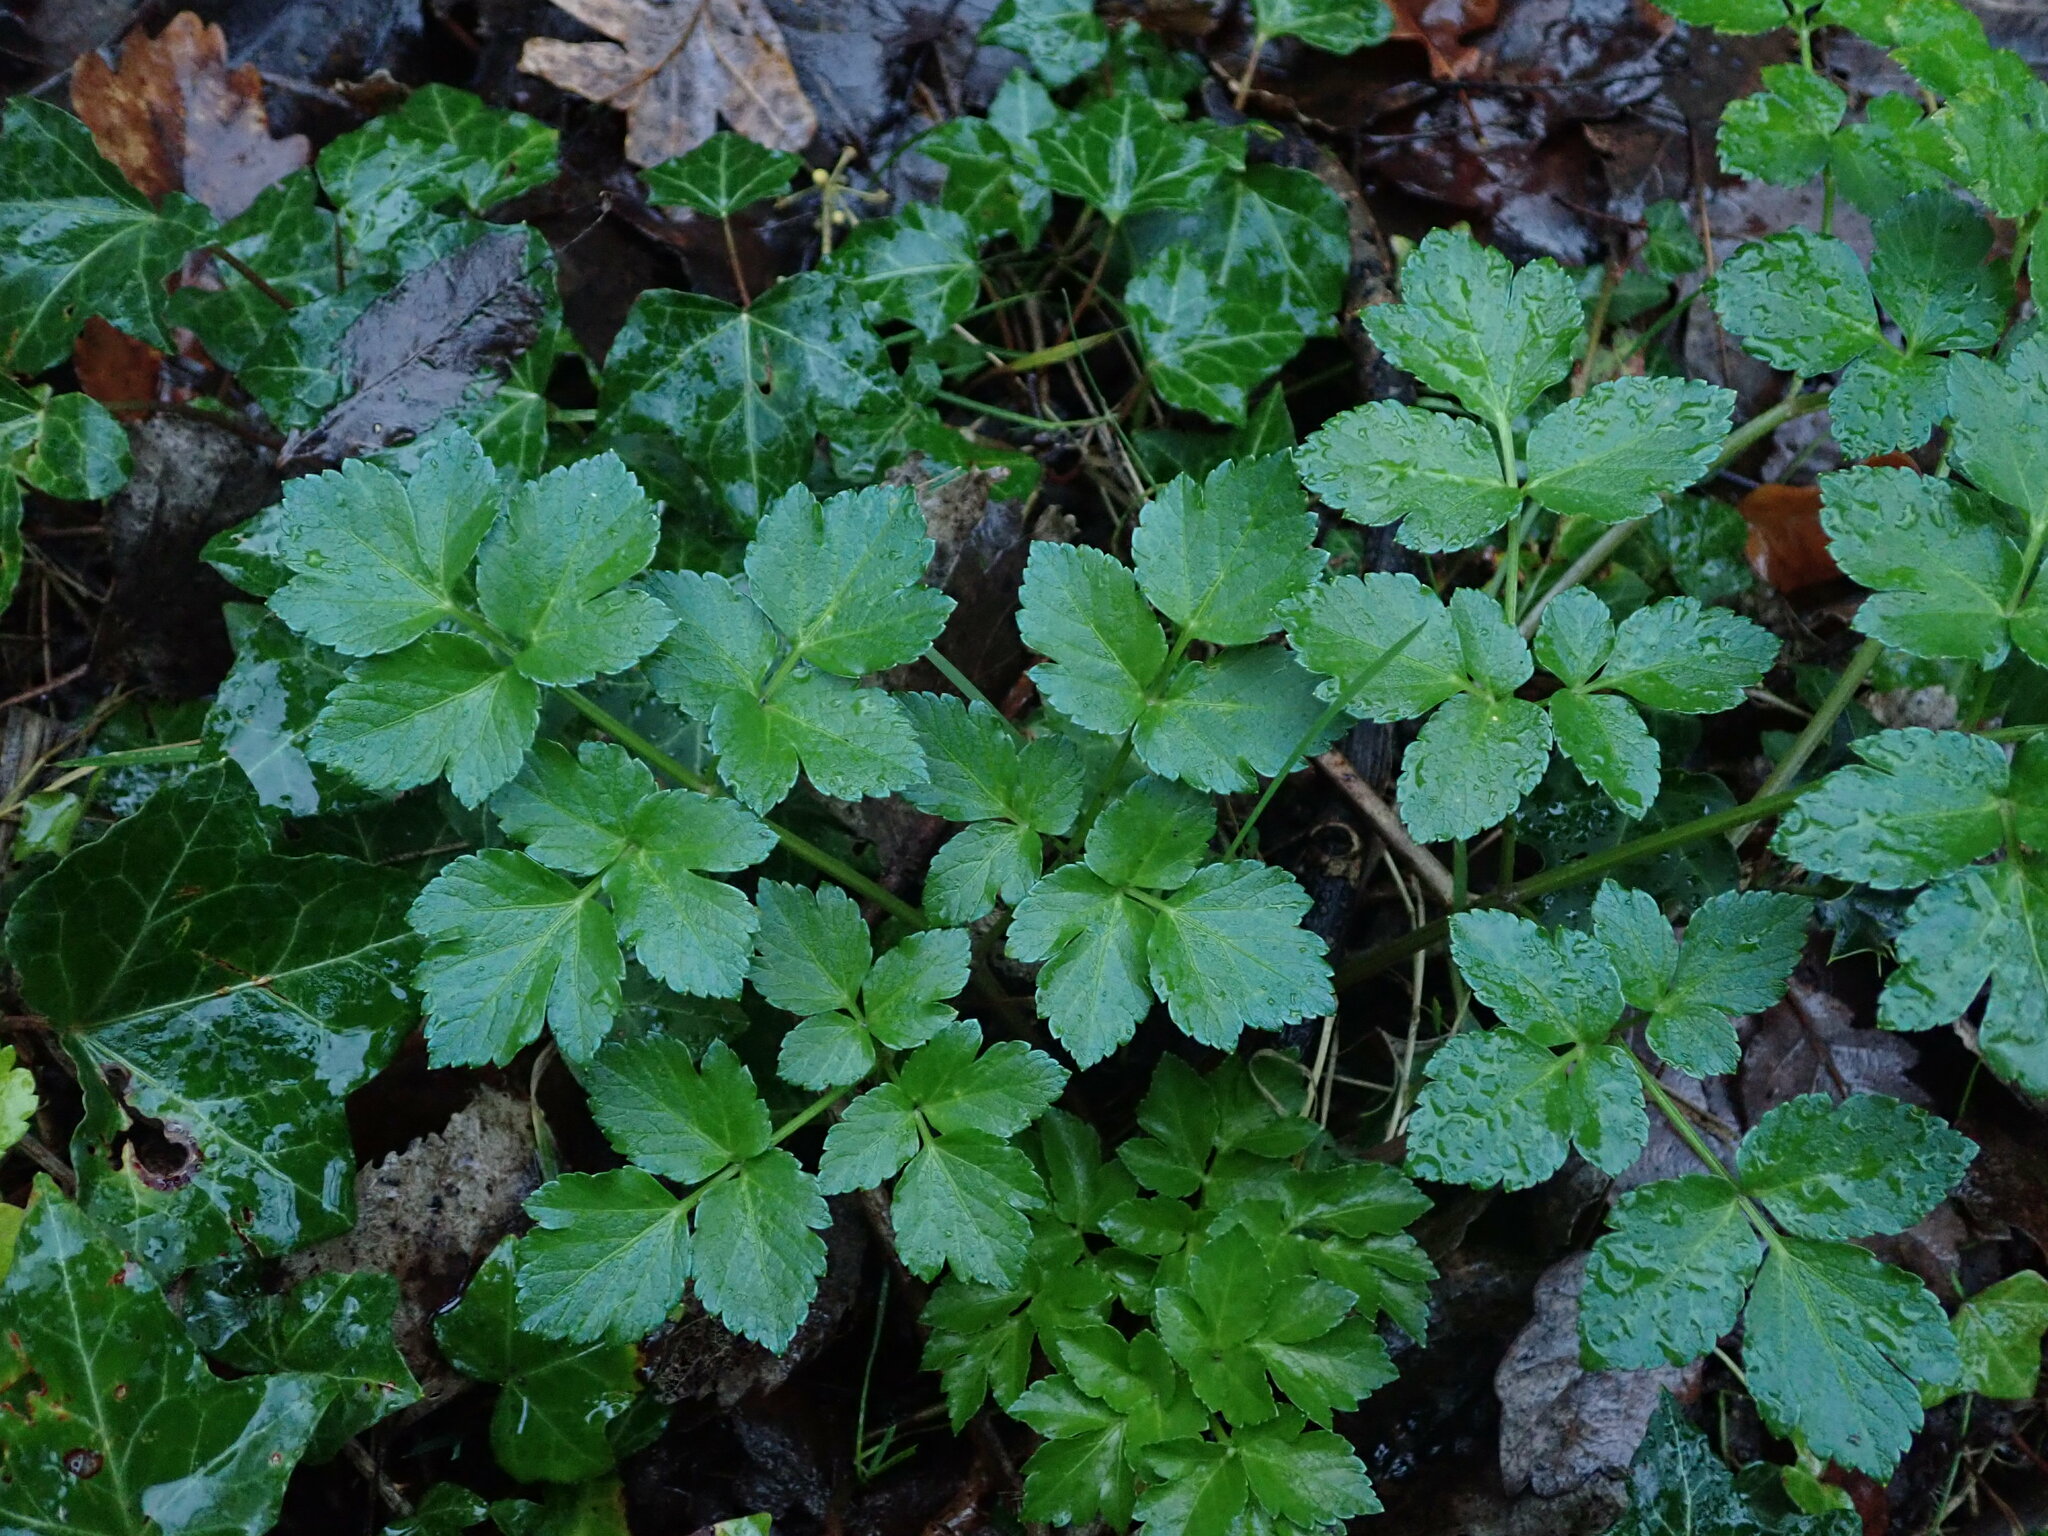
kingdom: Plantae
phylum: Tracheophyta
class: Magnoliopsida
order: Apiales
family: Apiaceae
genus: Smyrnium
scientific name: Smyrnium olusatrum
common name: Alexanders
